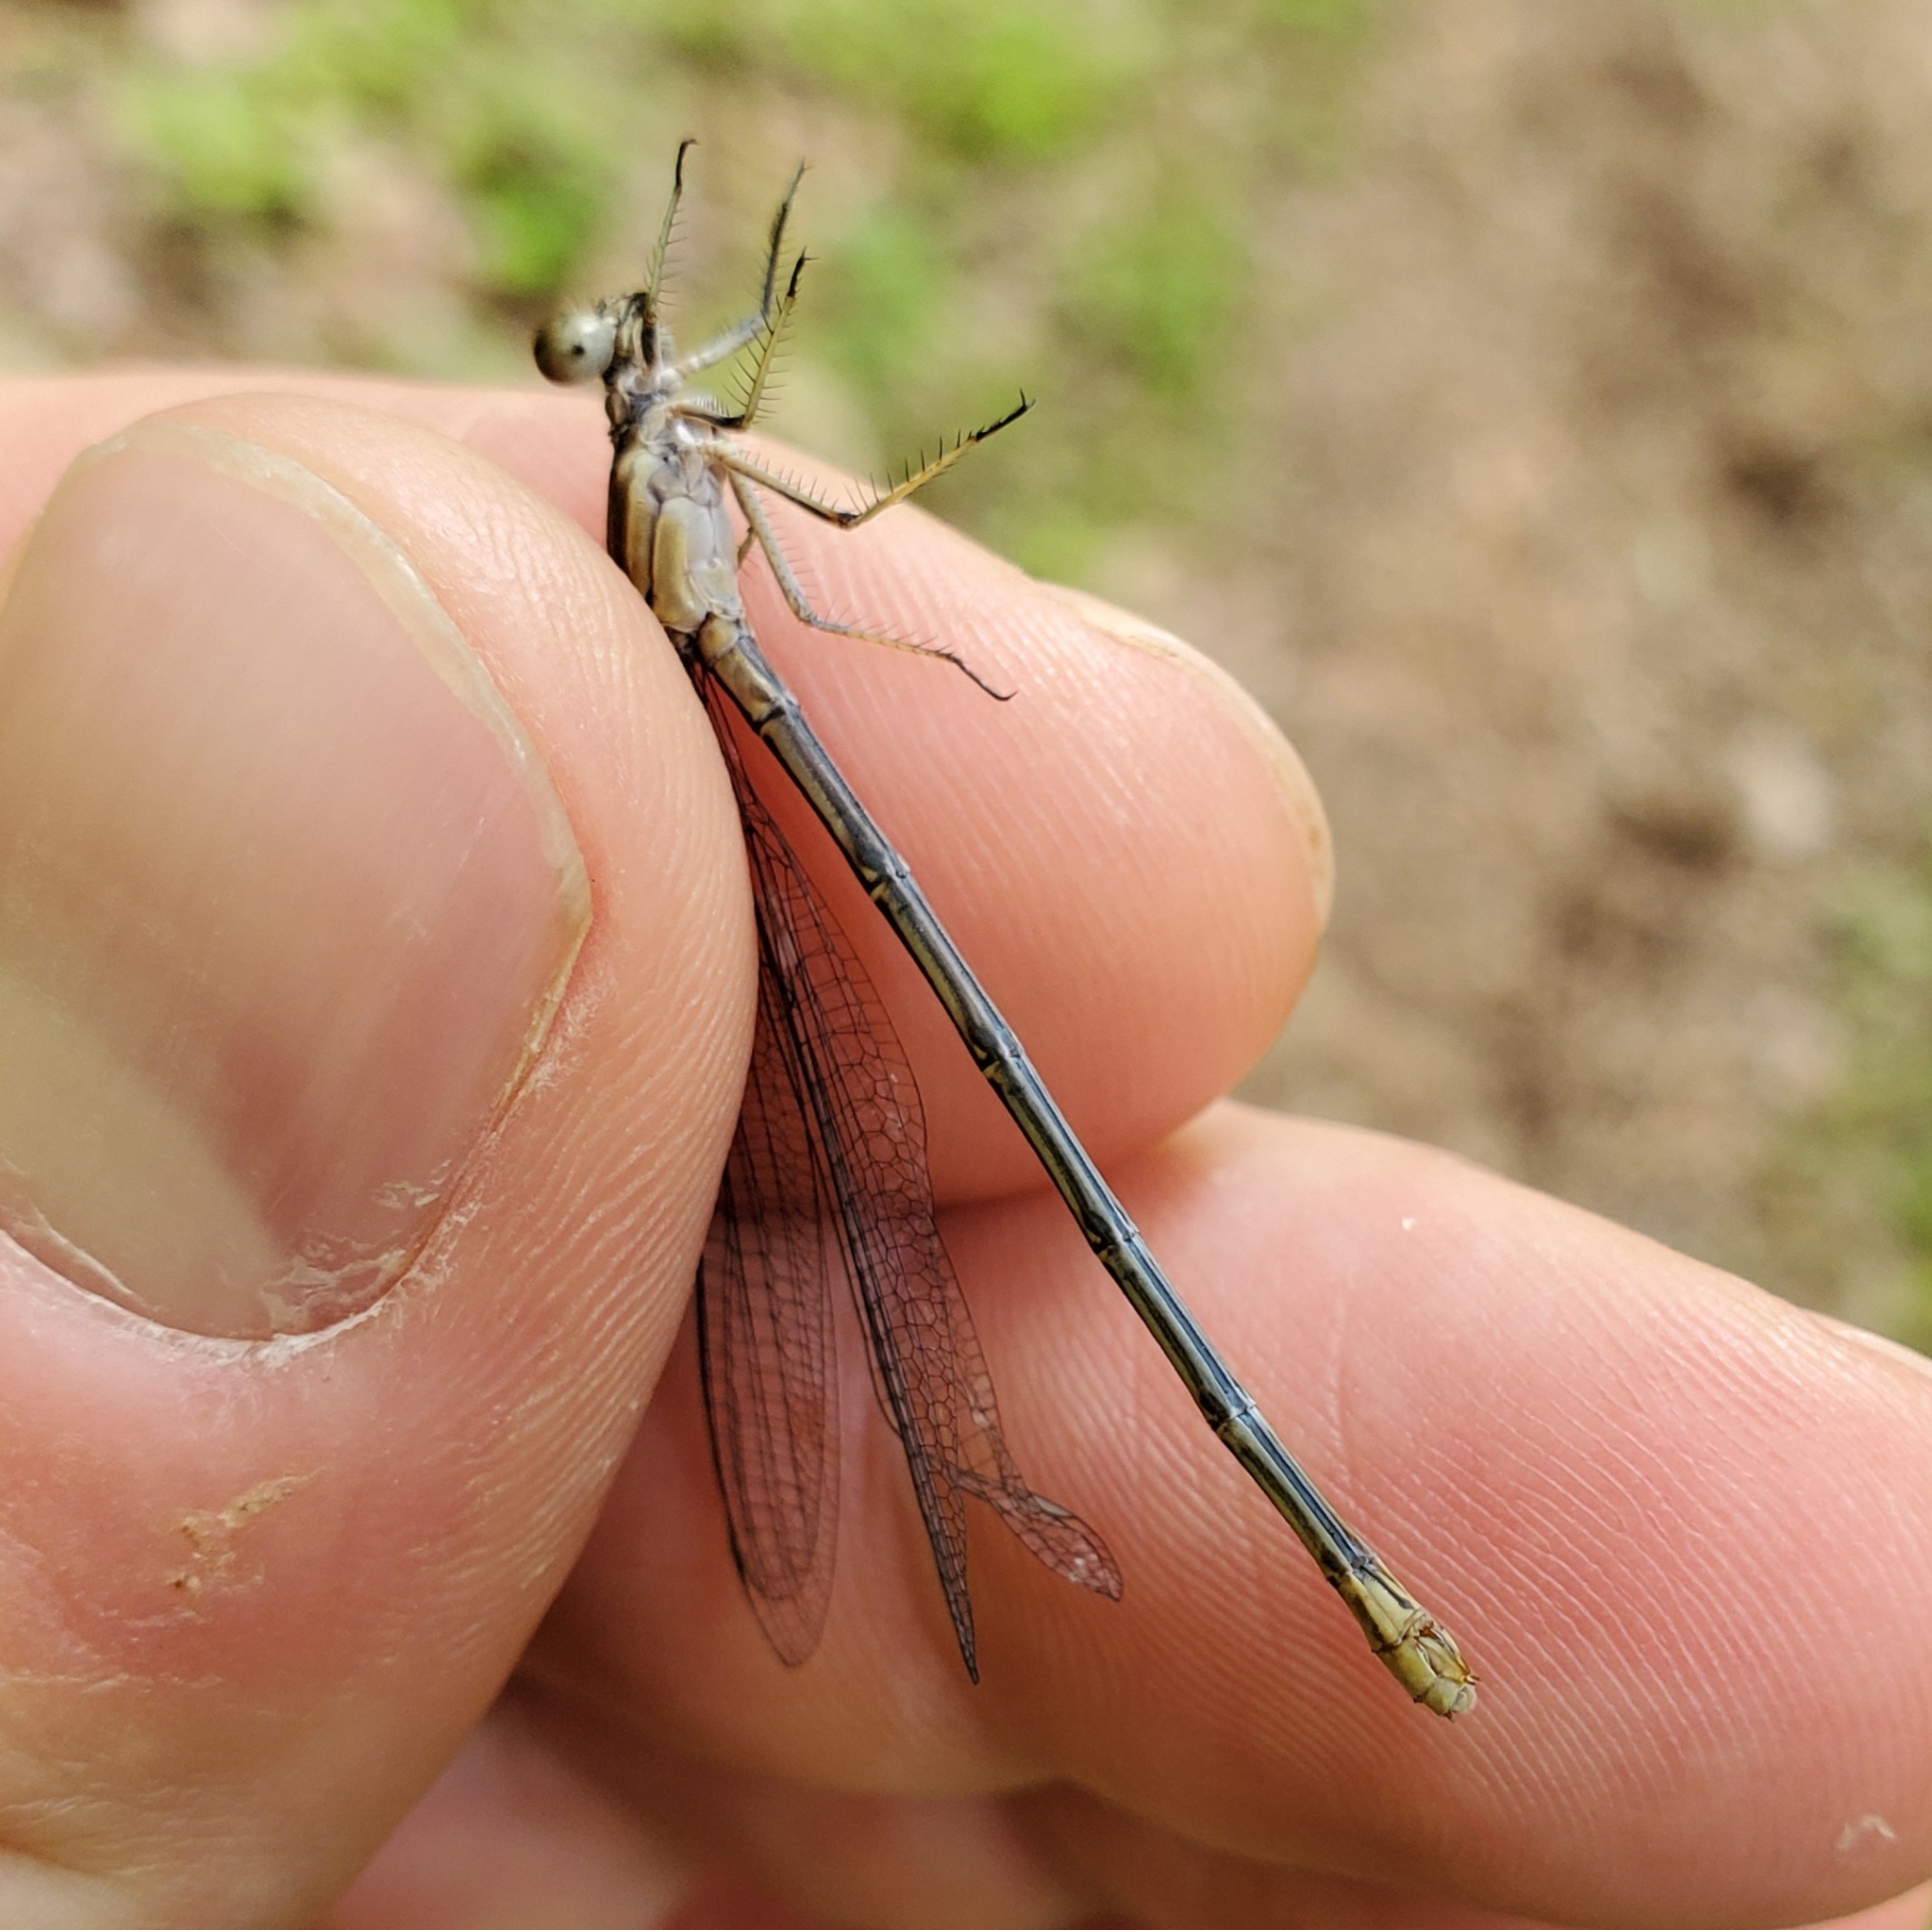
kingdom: Animalia
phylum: Arthropoda
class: Insecta
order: Odonata
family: Coenagrionidae
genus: Argia
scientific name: Argia moesta
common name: Powdered dancer
